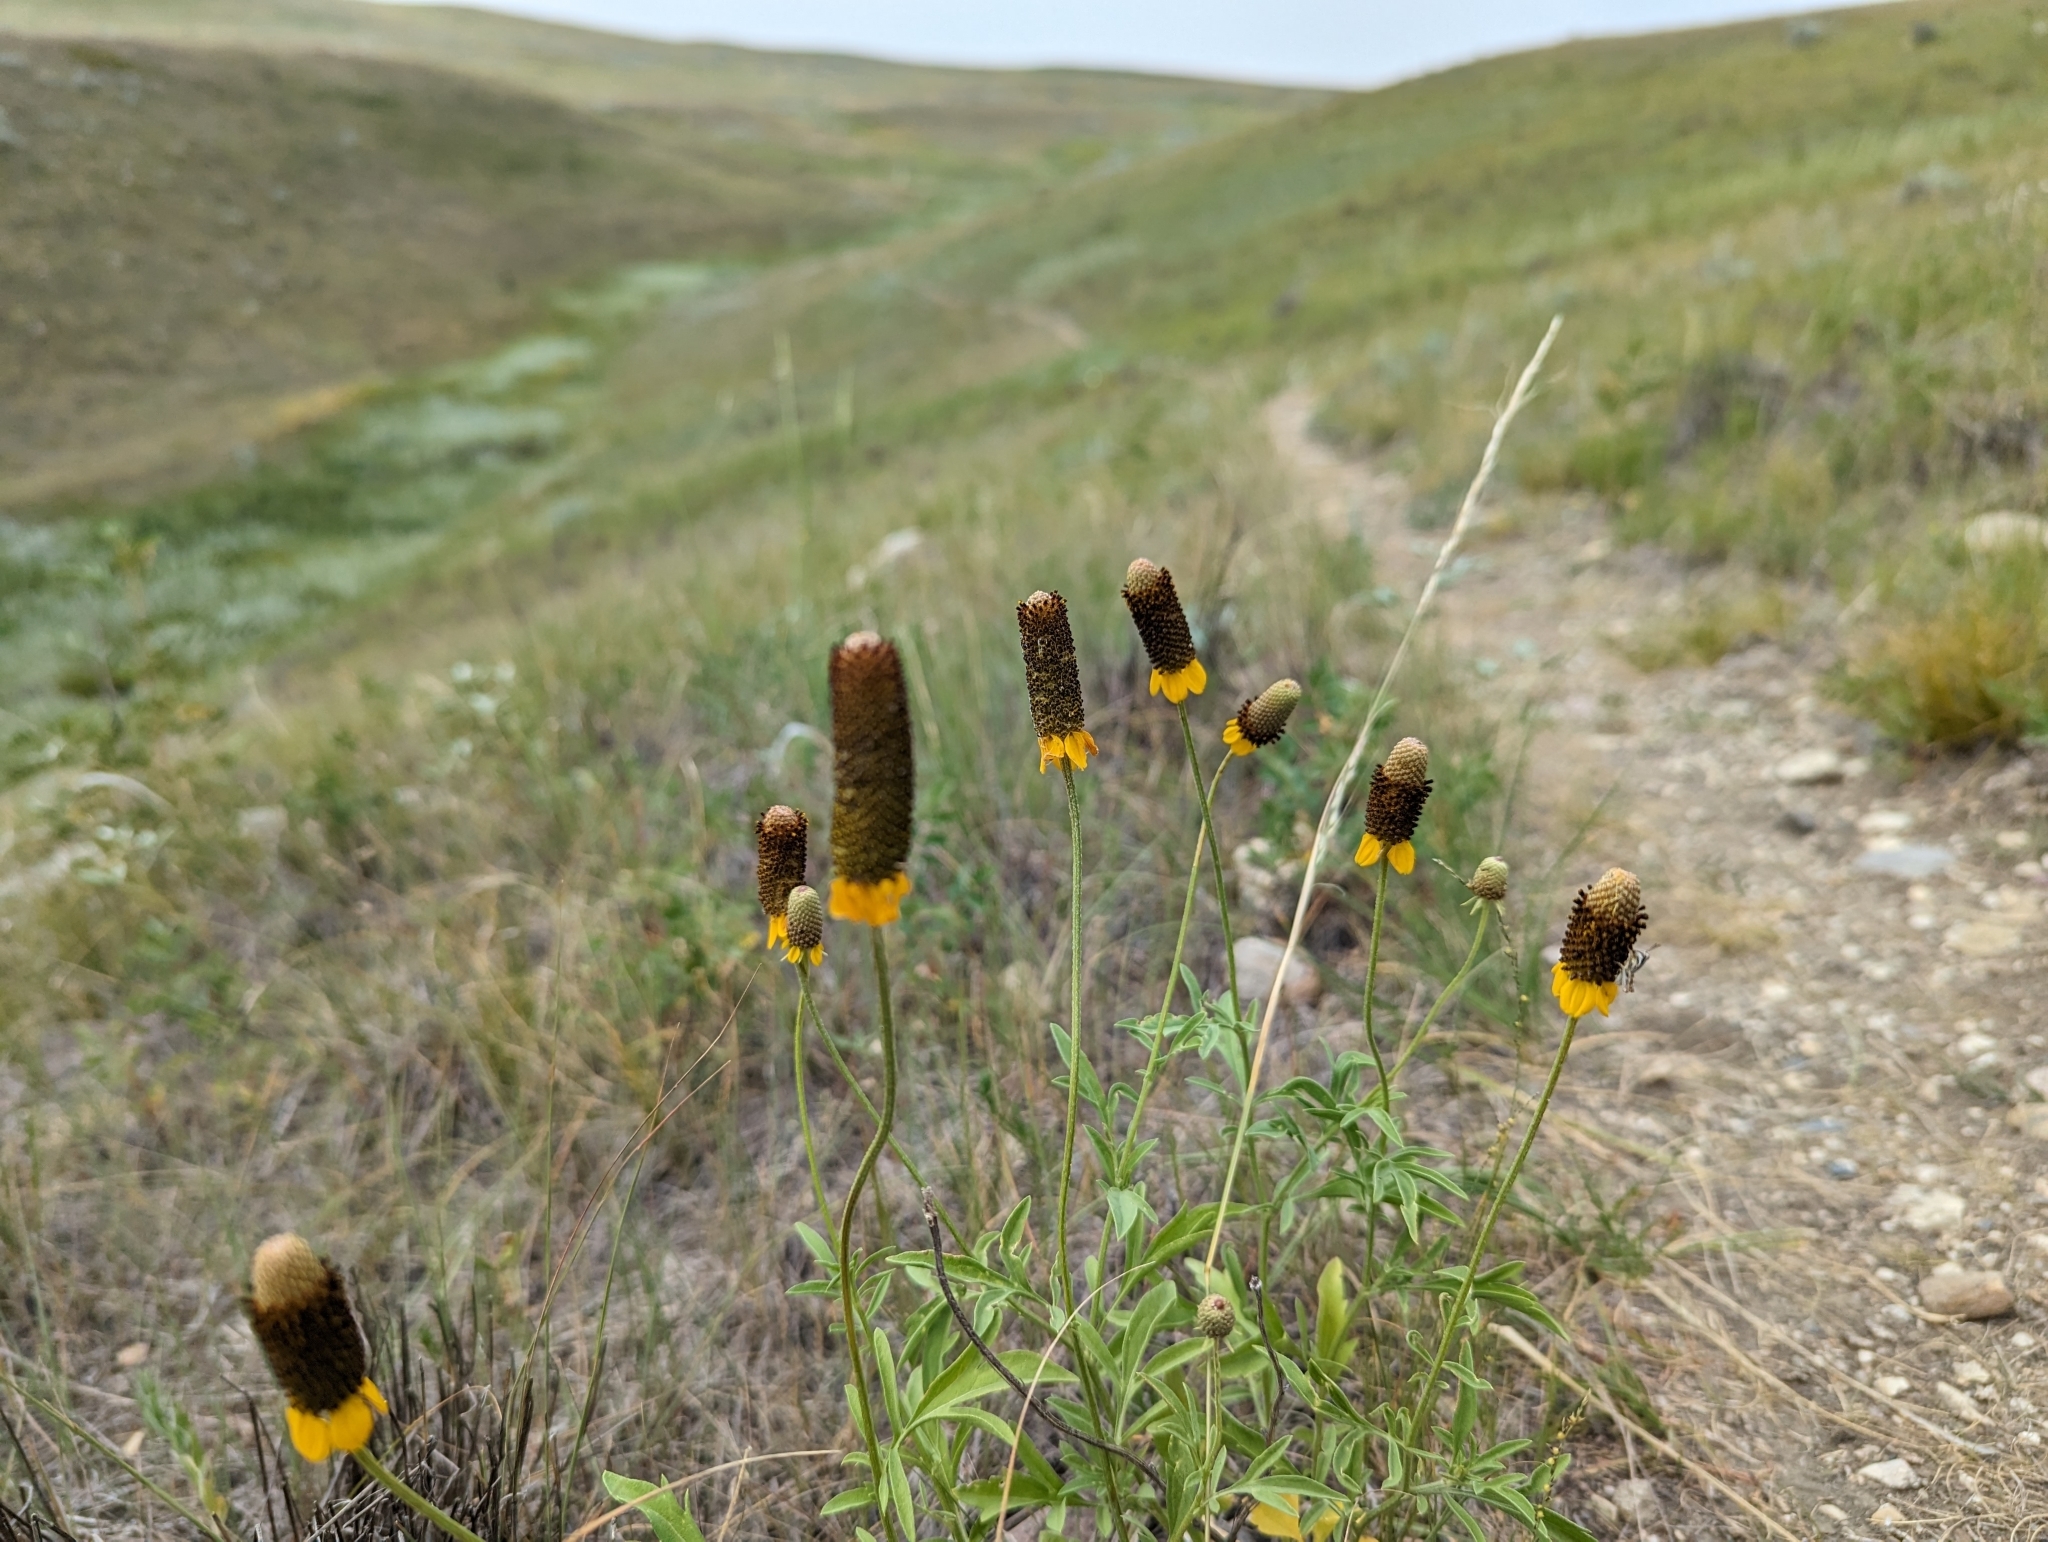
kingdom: Plantae
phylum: Tracheophyta
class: Magnoliopsida
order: Asterales
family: Asteraceae
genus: Ratibida
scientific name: Ratibida columnifera
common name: Prairie coneflower
